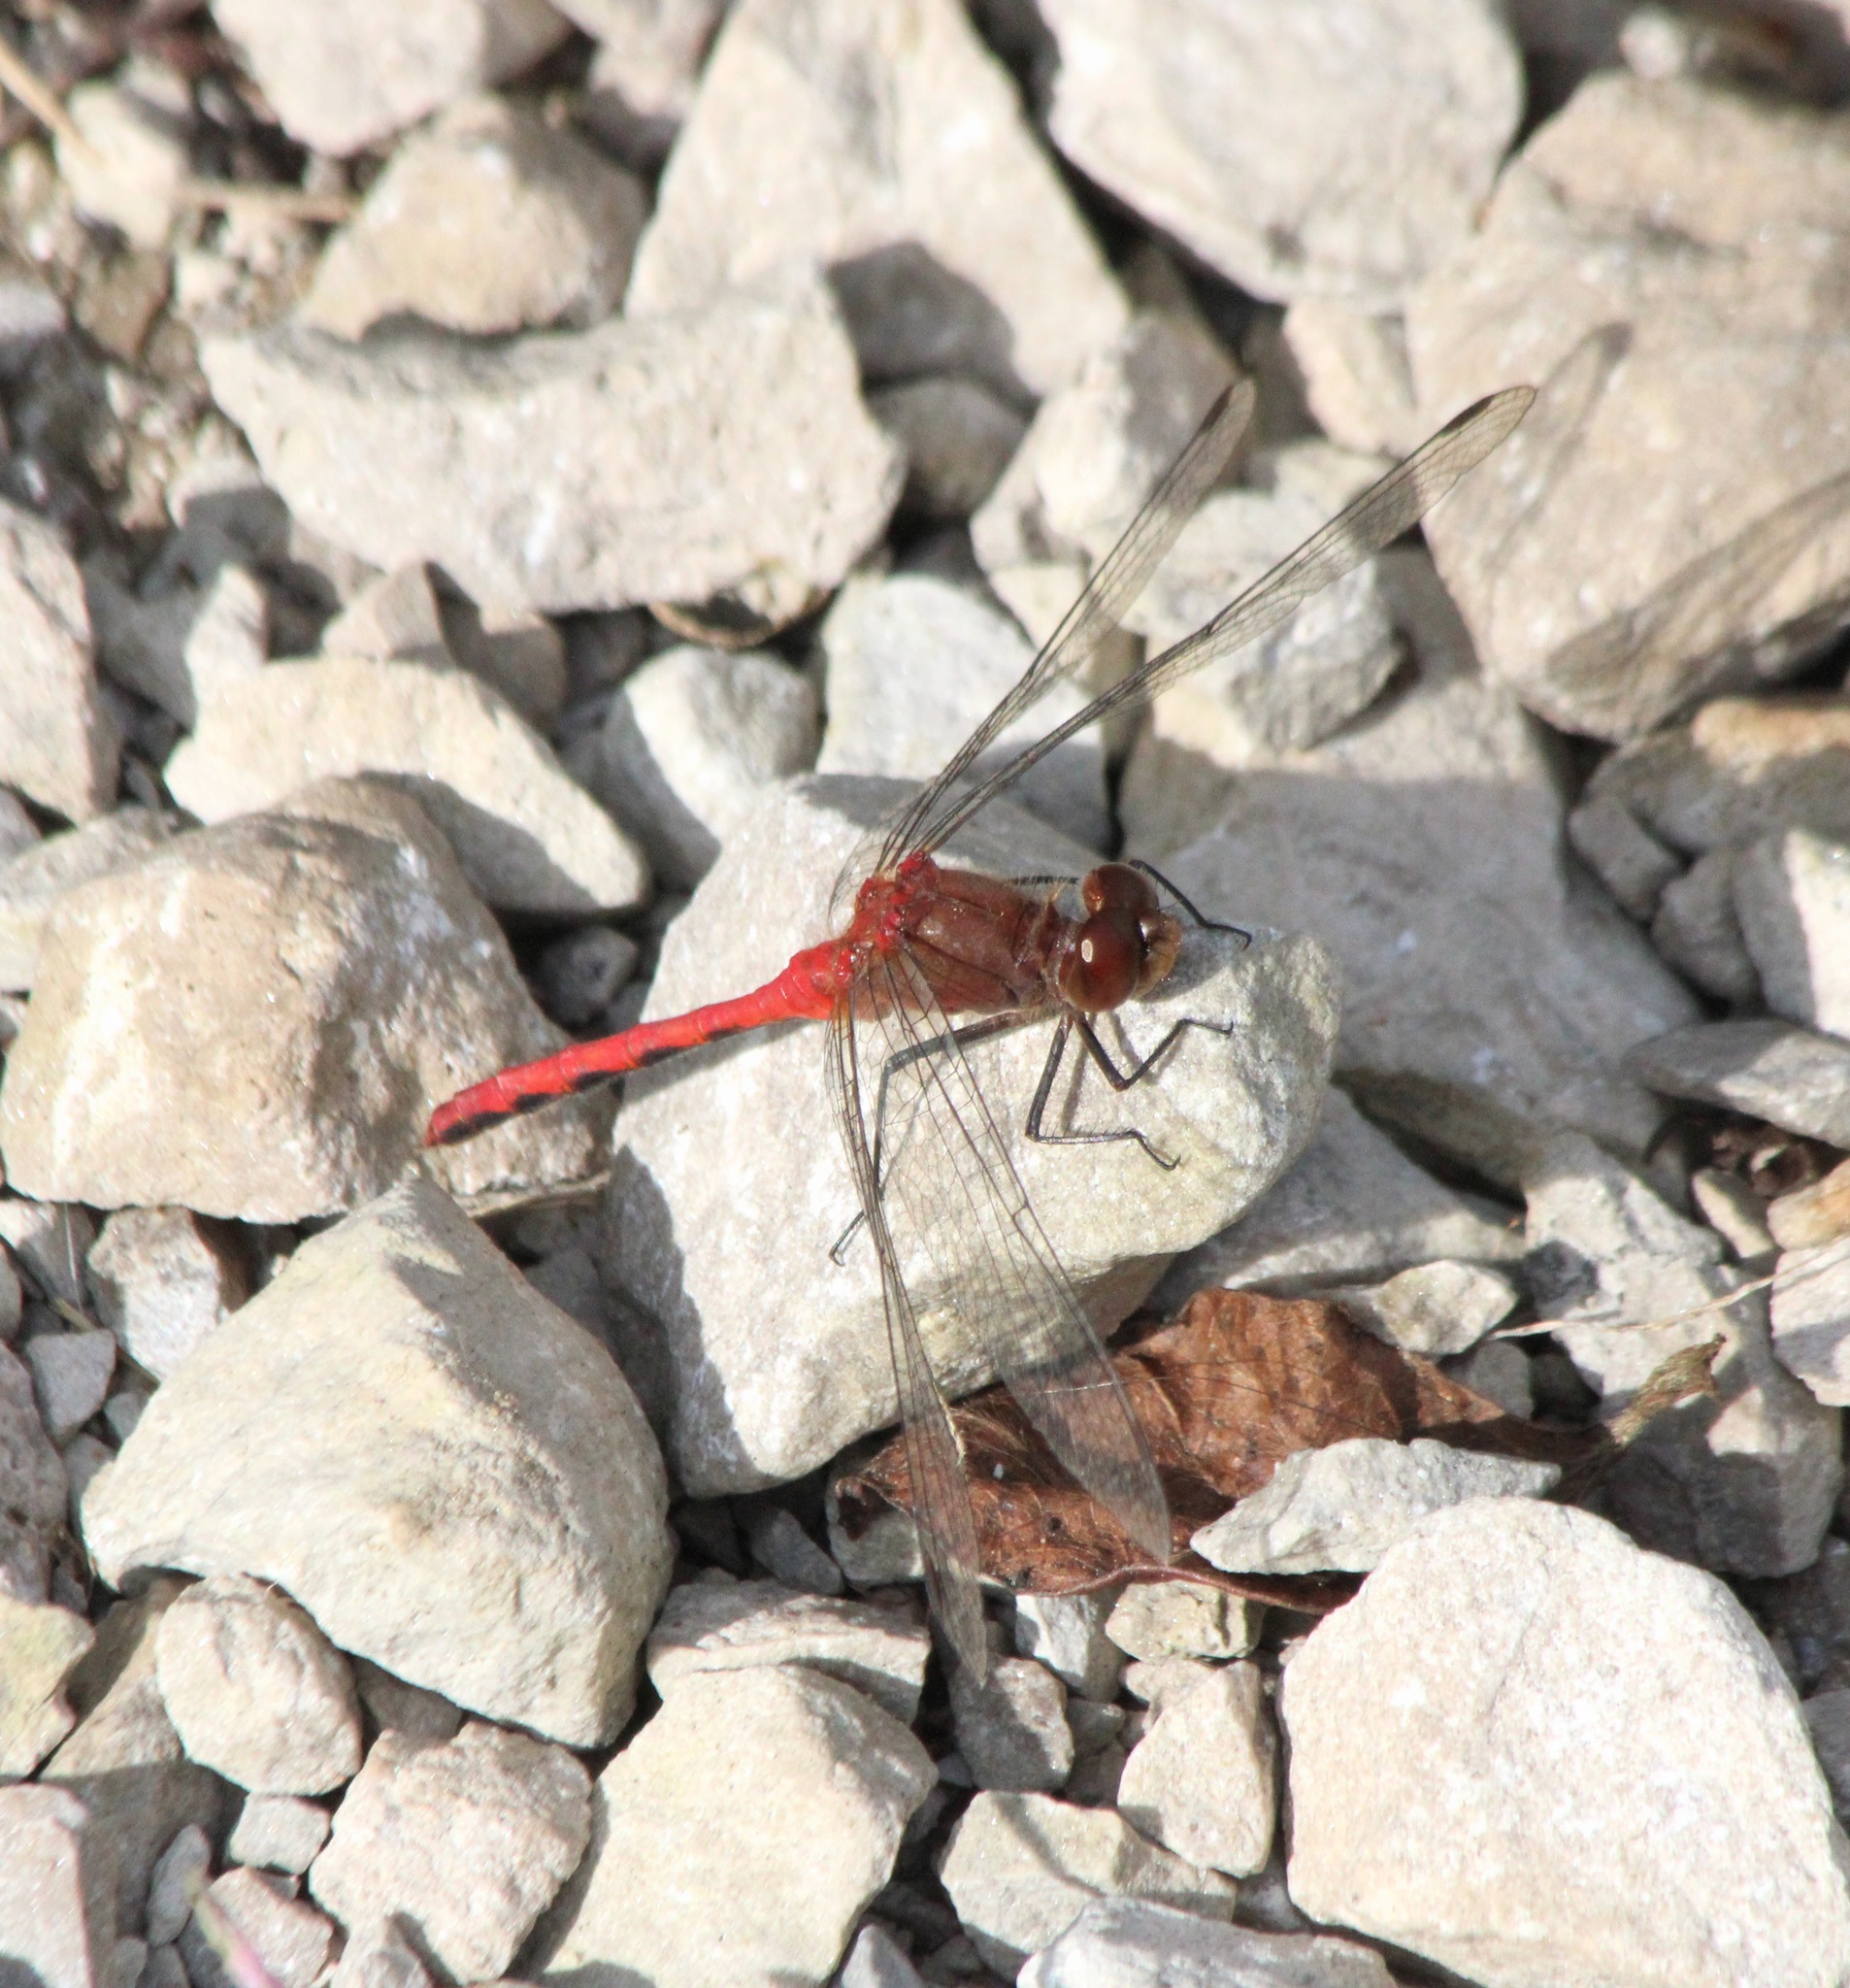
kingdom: Animalia
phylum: Arthropoda
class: Insecta
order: Odonata
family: Libellulidae
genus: Sympetrum
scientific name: Sympetrum
